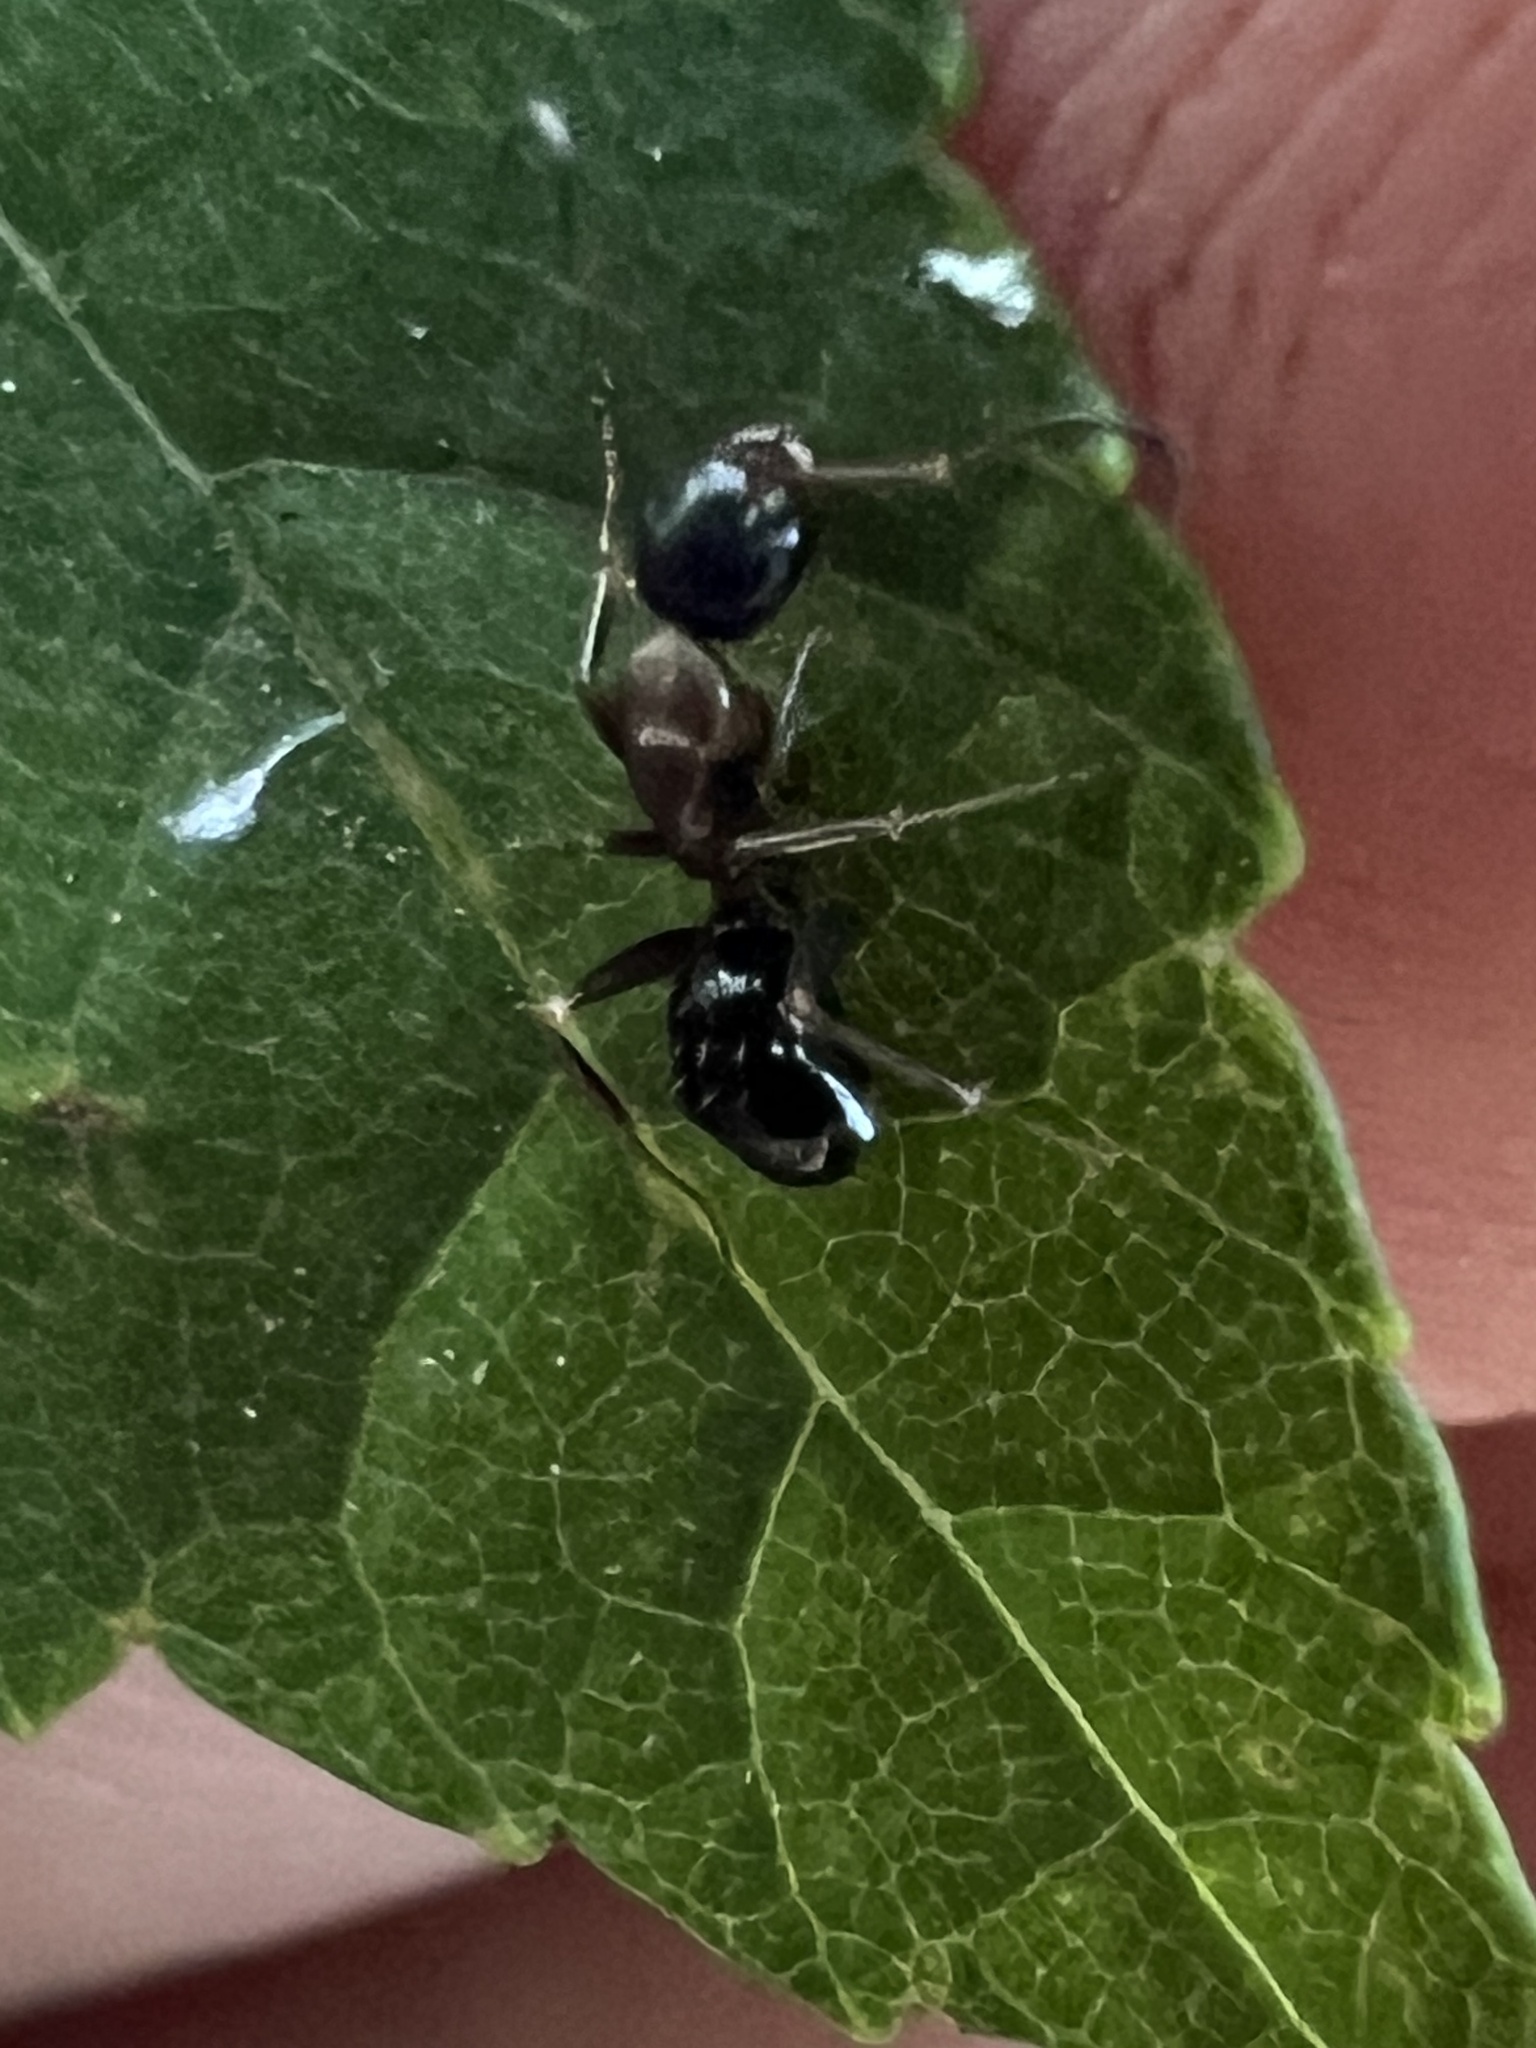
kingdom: Animalia
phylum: Arthropoda
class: Insecta
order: Hymenoptera
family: Formicidae
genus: Camponotus
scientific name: Camponotus nearcticus
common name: Smaller carpenter ant
